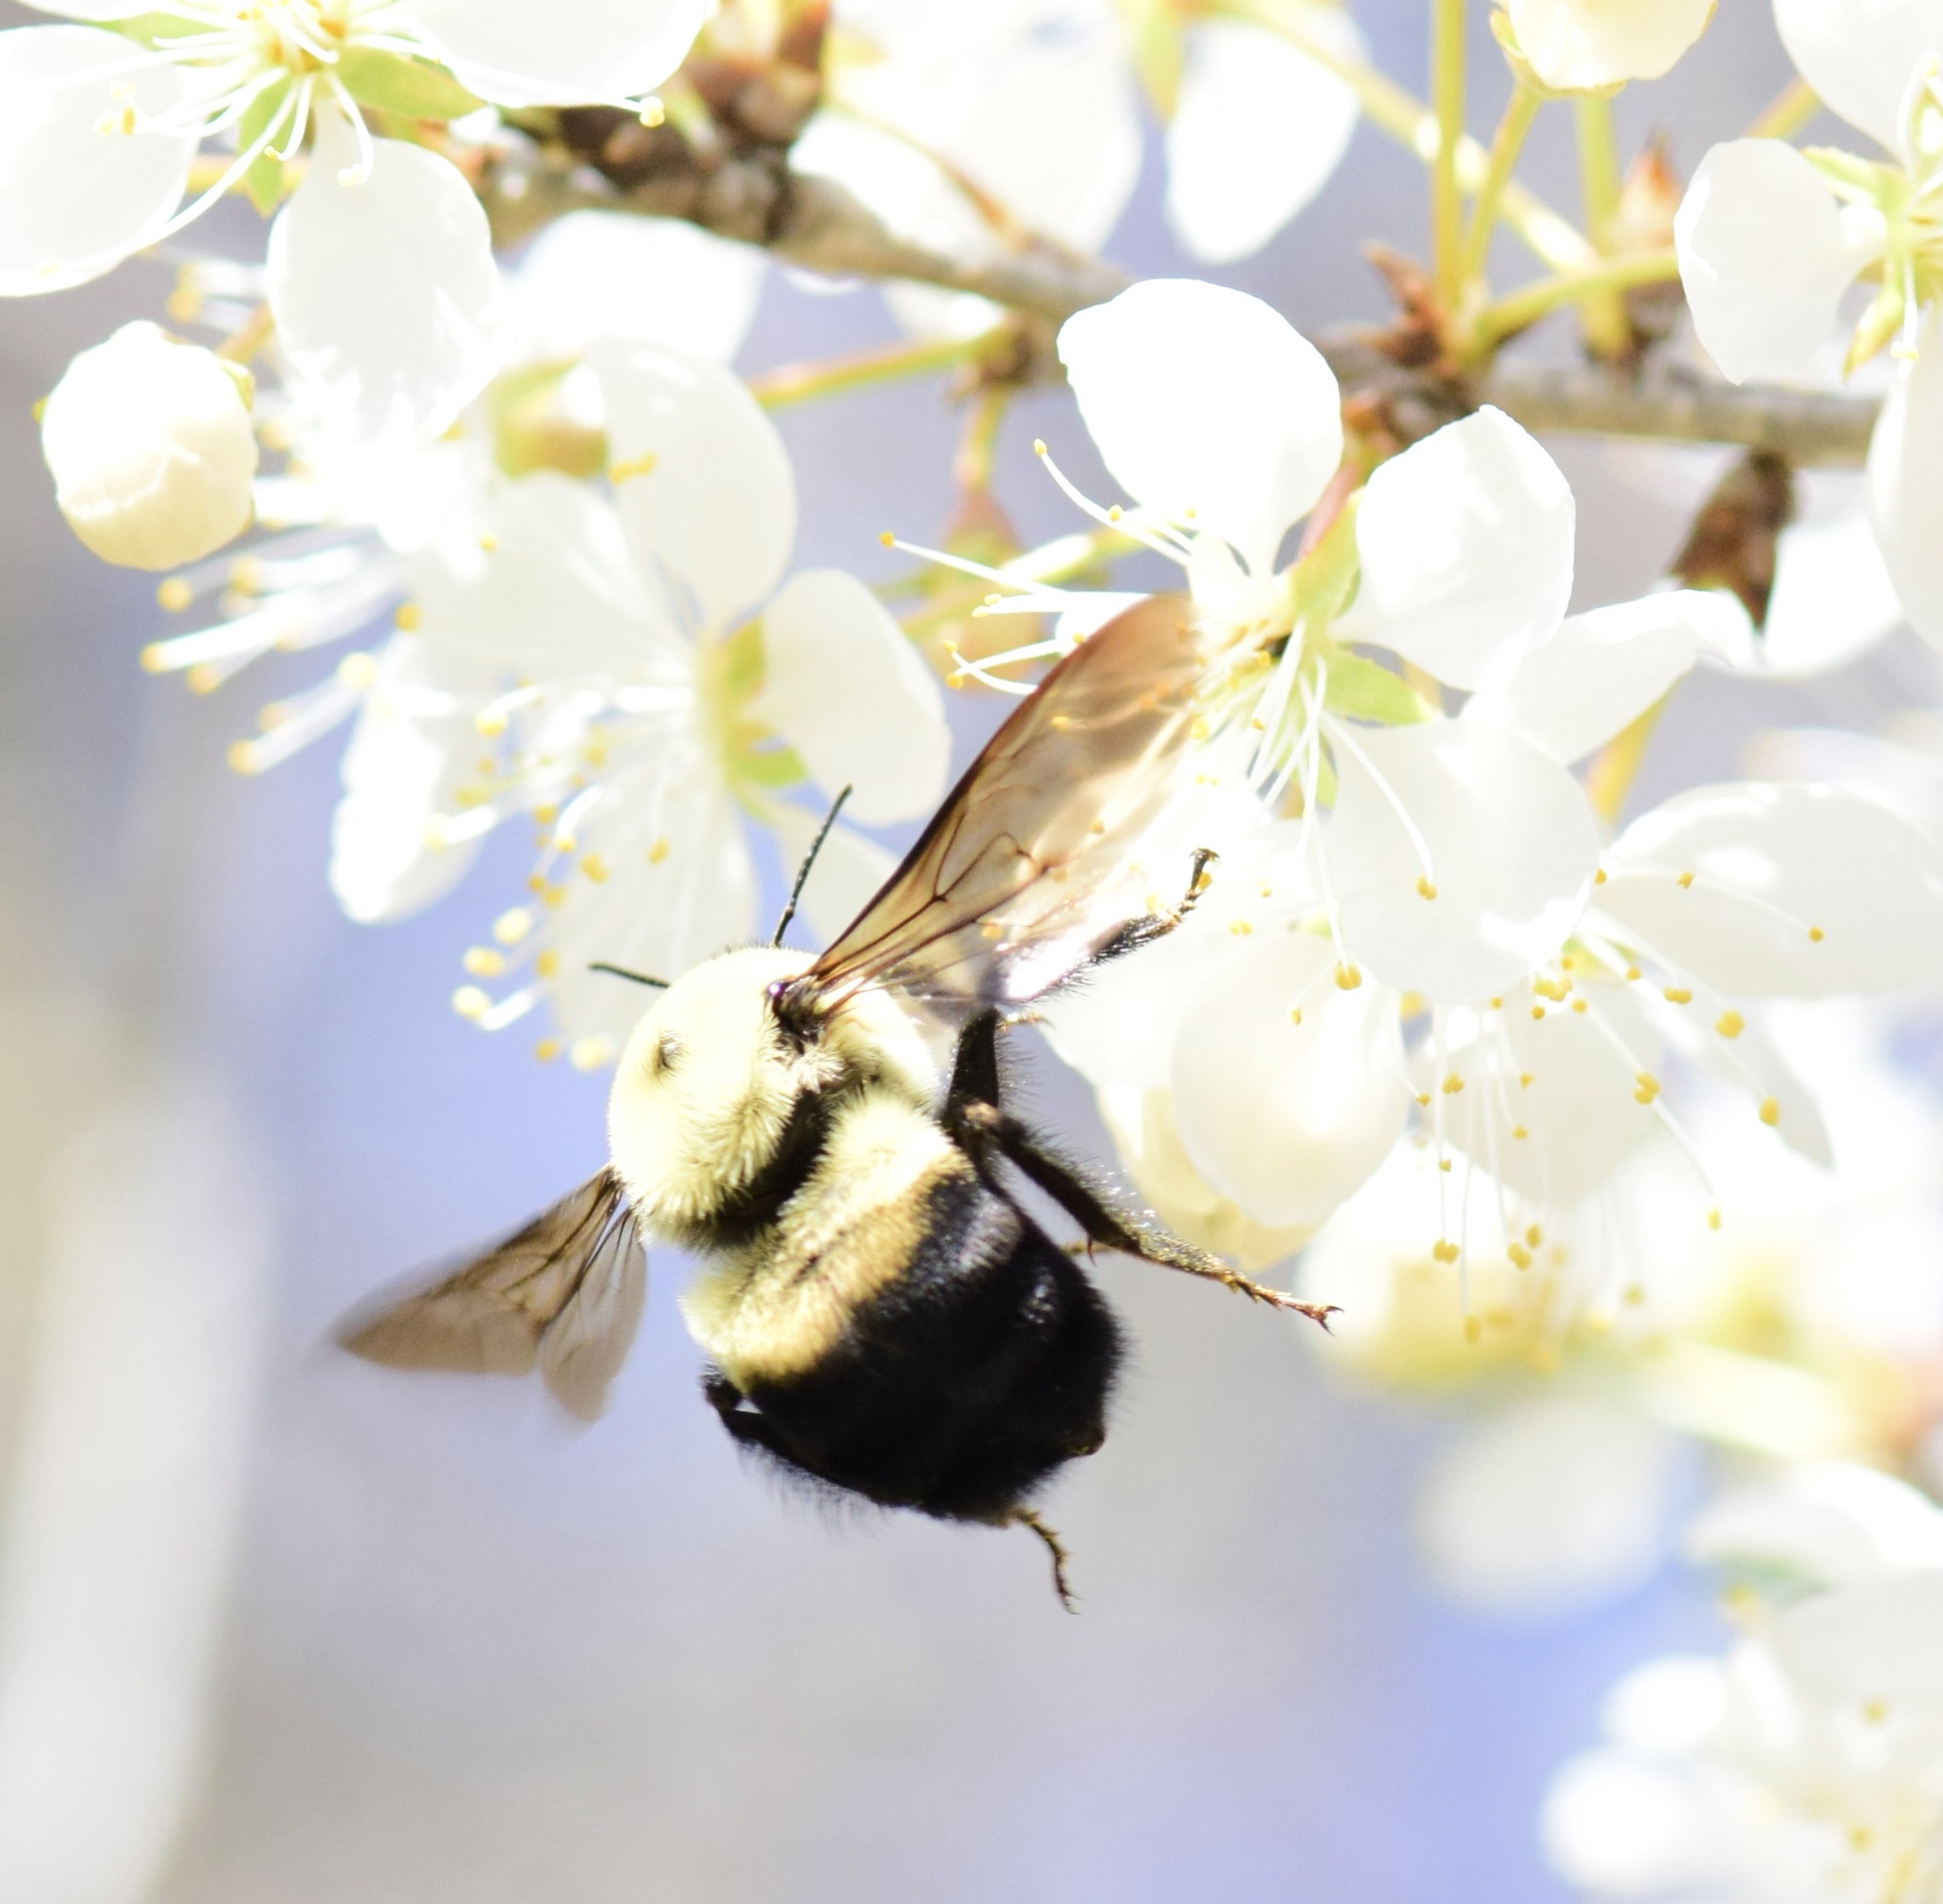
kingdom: Animalia
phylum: Arthropoda
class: Insecta
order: Hymenoptera
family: Apidae
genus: Bombus
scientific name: Bombus griseocollis
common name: Brown-belted bumble bee
